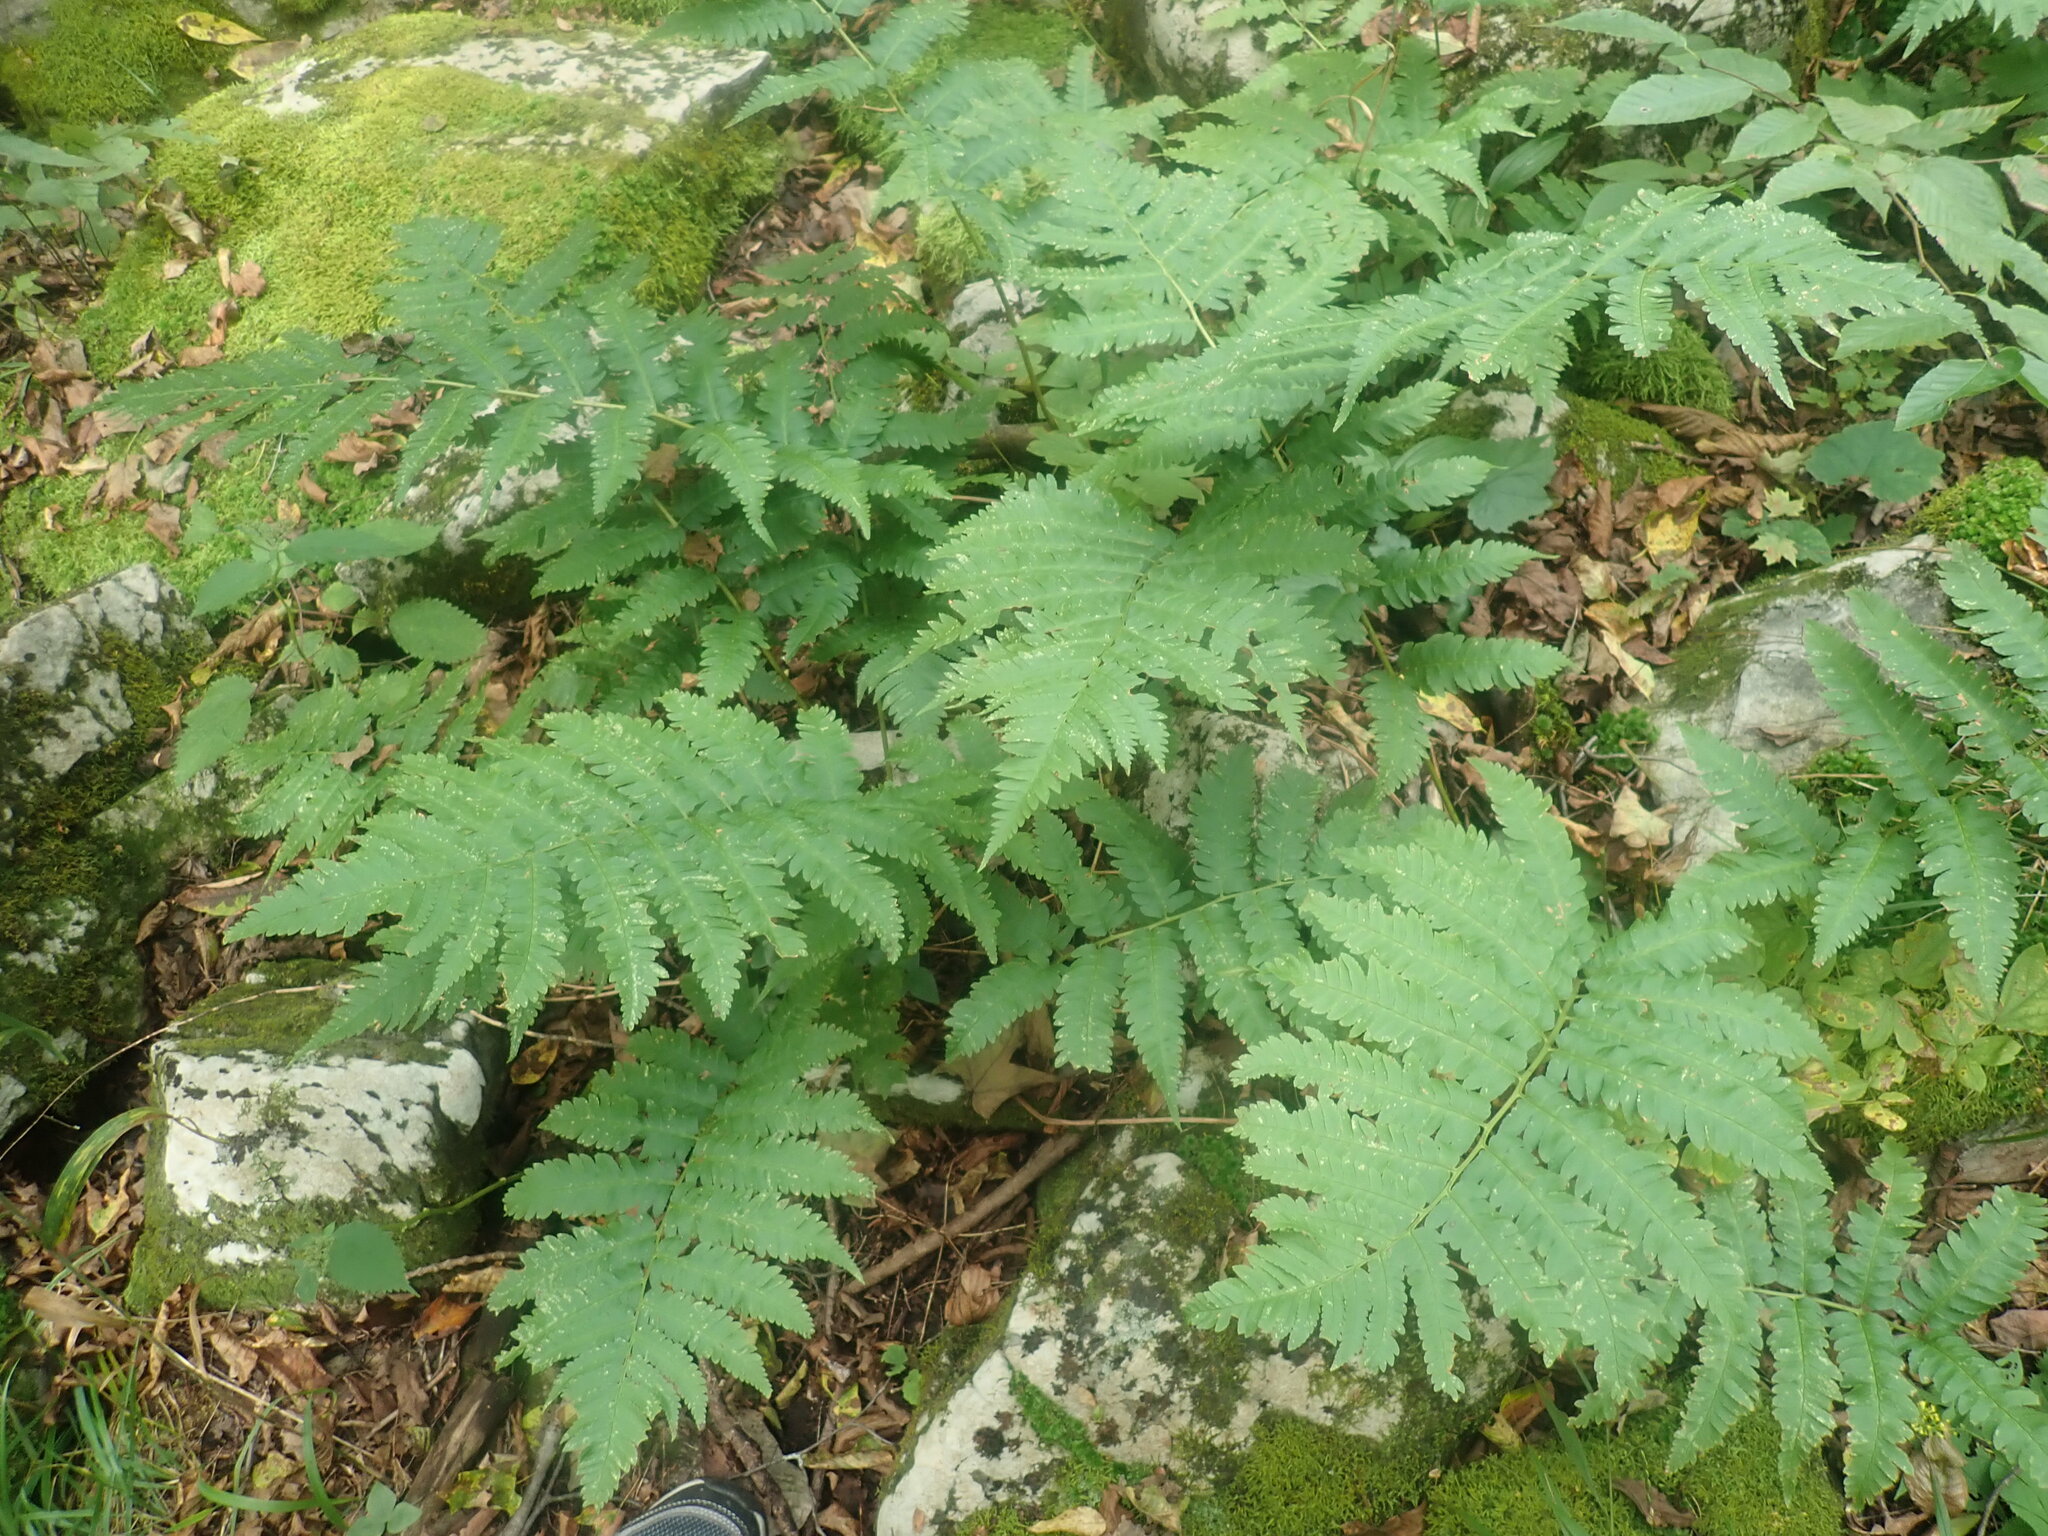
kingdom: Plantae
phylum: Tracheophyta
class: Polypodiopsida
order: Polypodiales
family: Dryopteridaceae
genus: Dryopteris
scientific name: Dryopteris goldieana
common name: Goldie's fern
